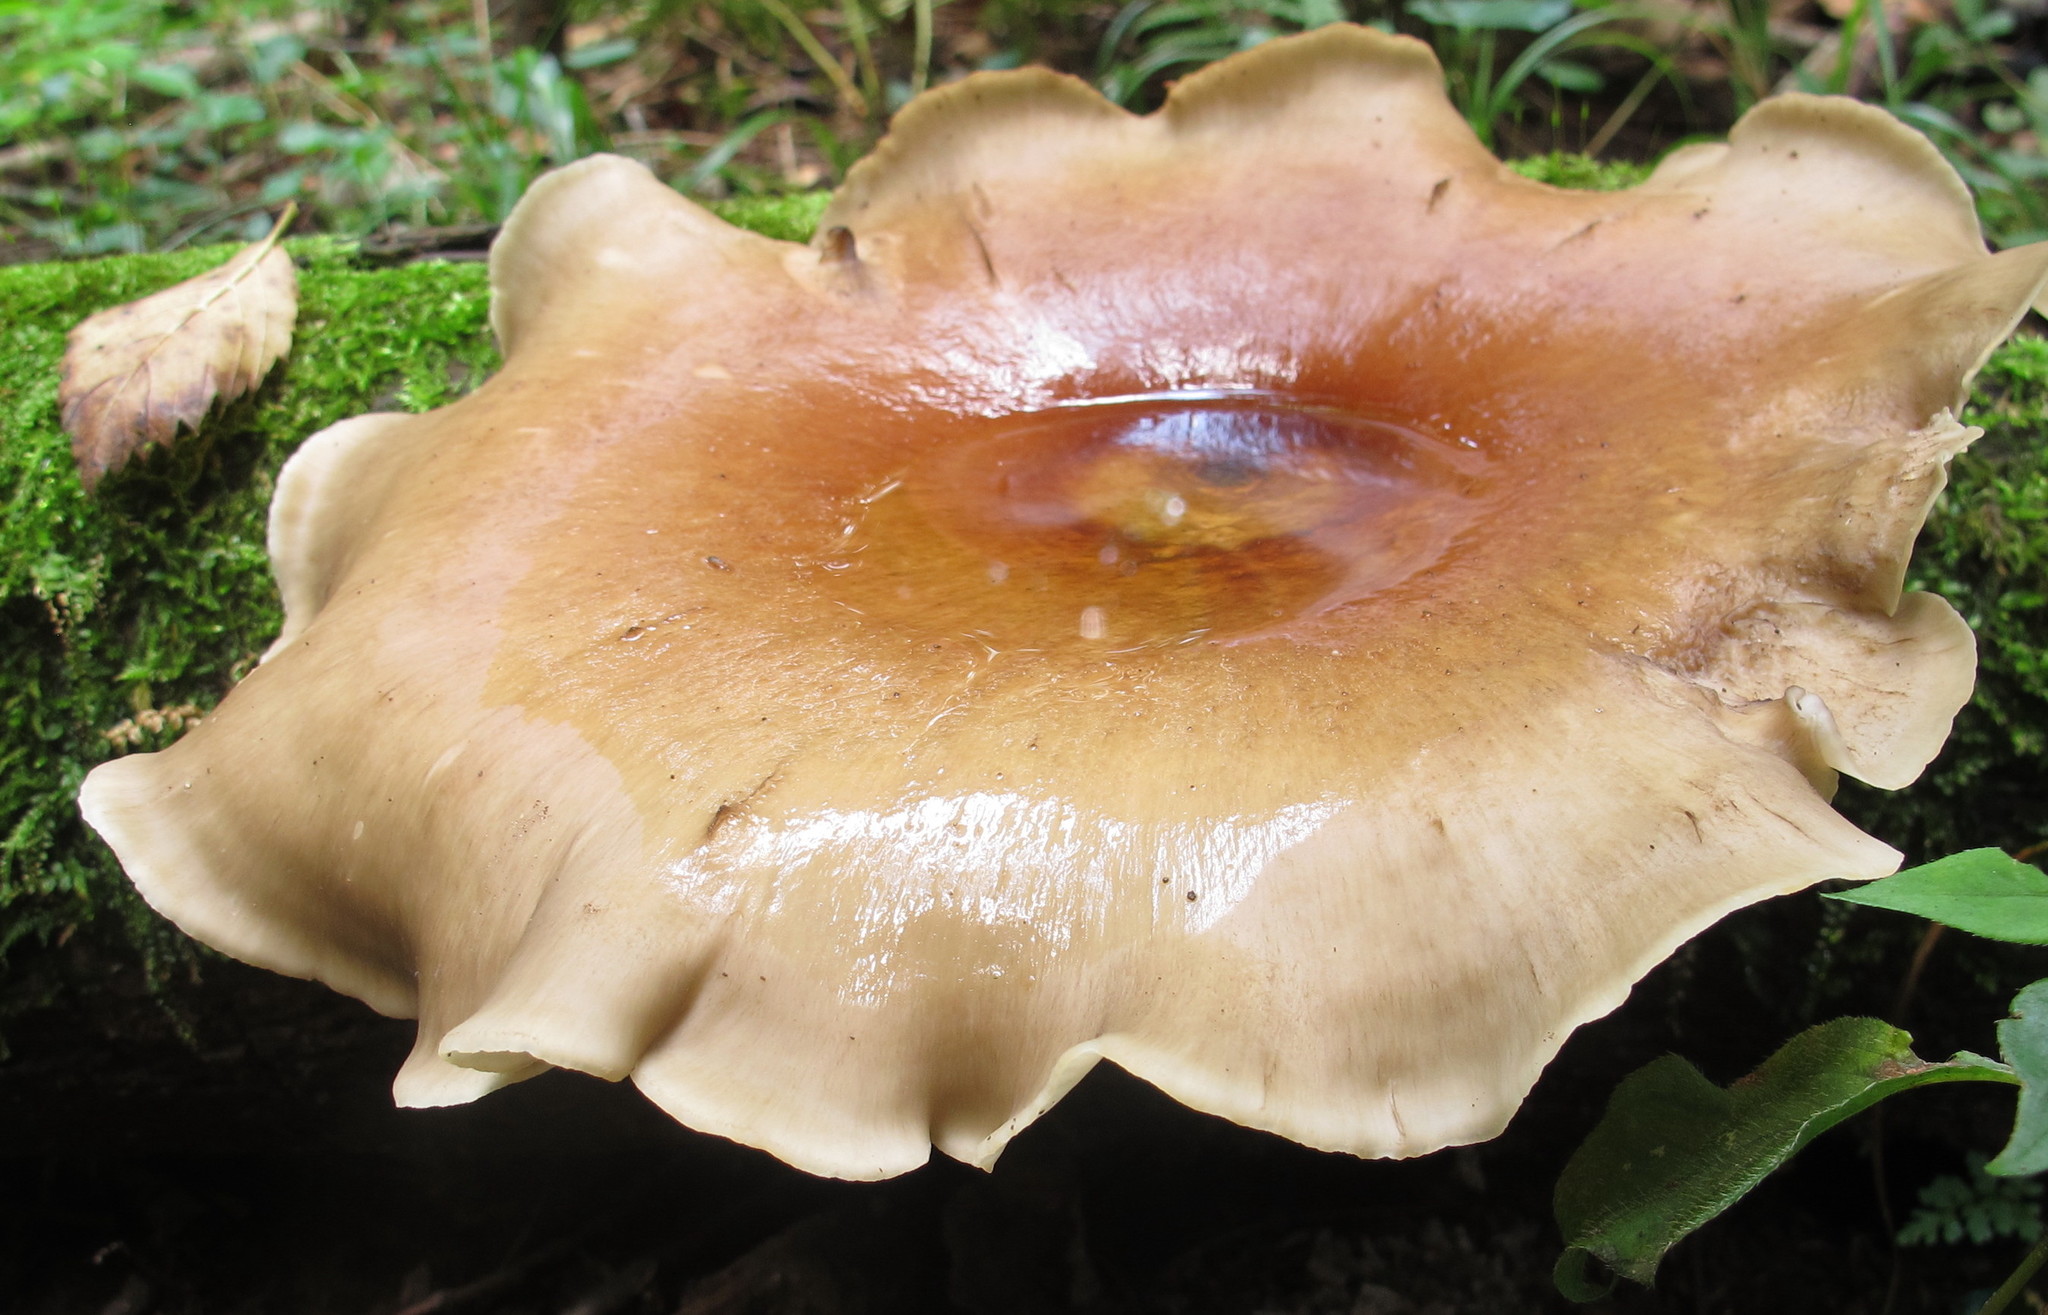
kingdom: Fungi
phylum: Basidiomycota
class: Agaricomycetes
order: Polyporales
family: Polyporaceae
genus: Picipes
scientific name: Picipes badius
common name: Bay polypore
